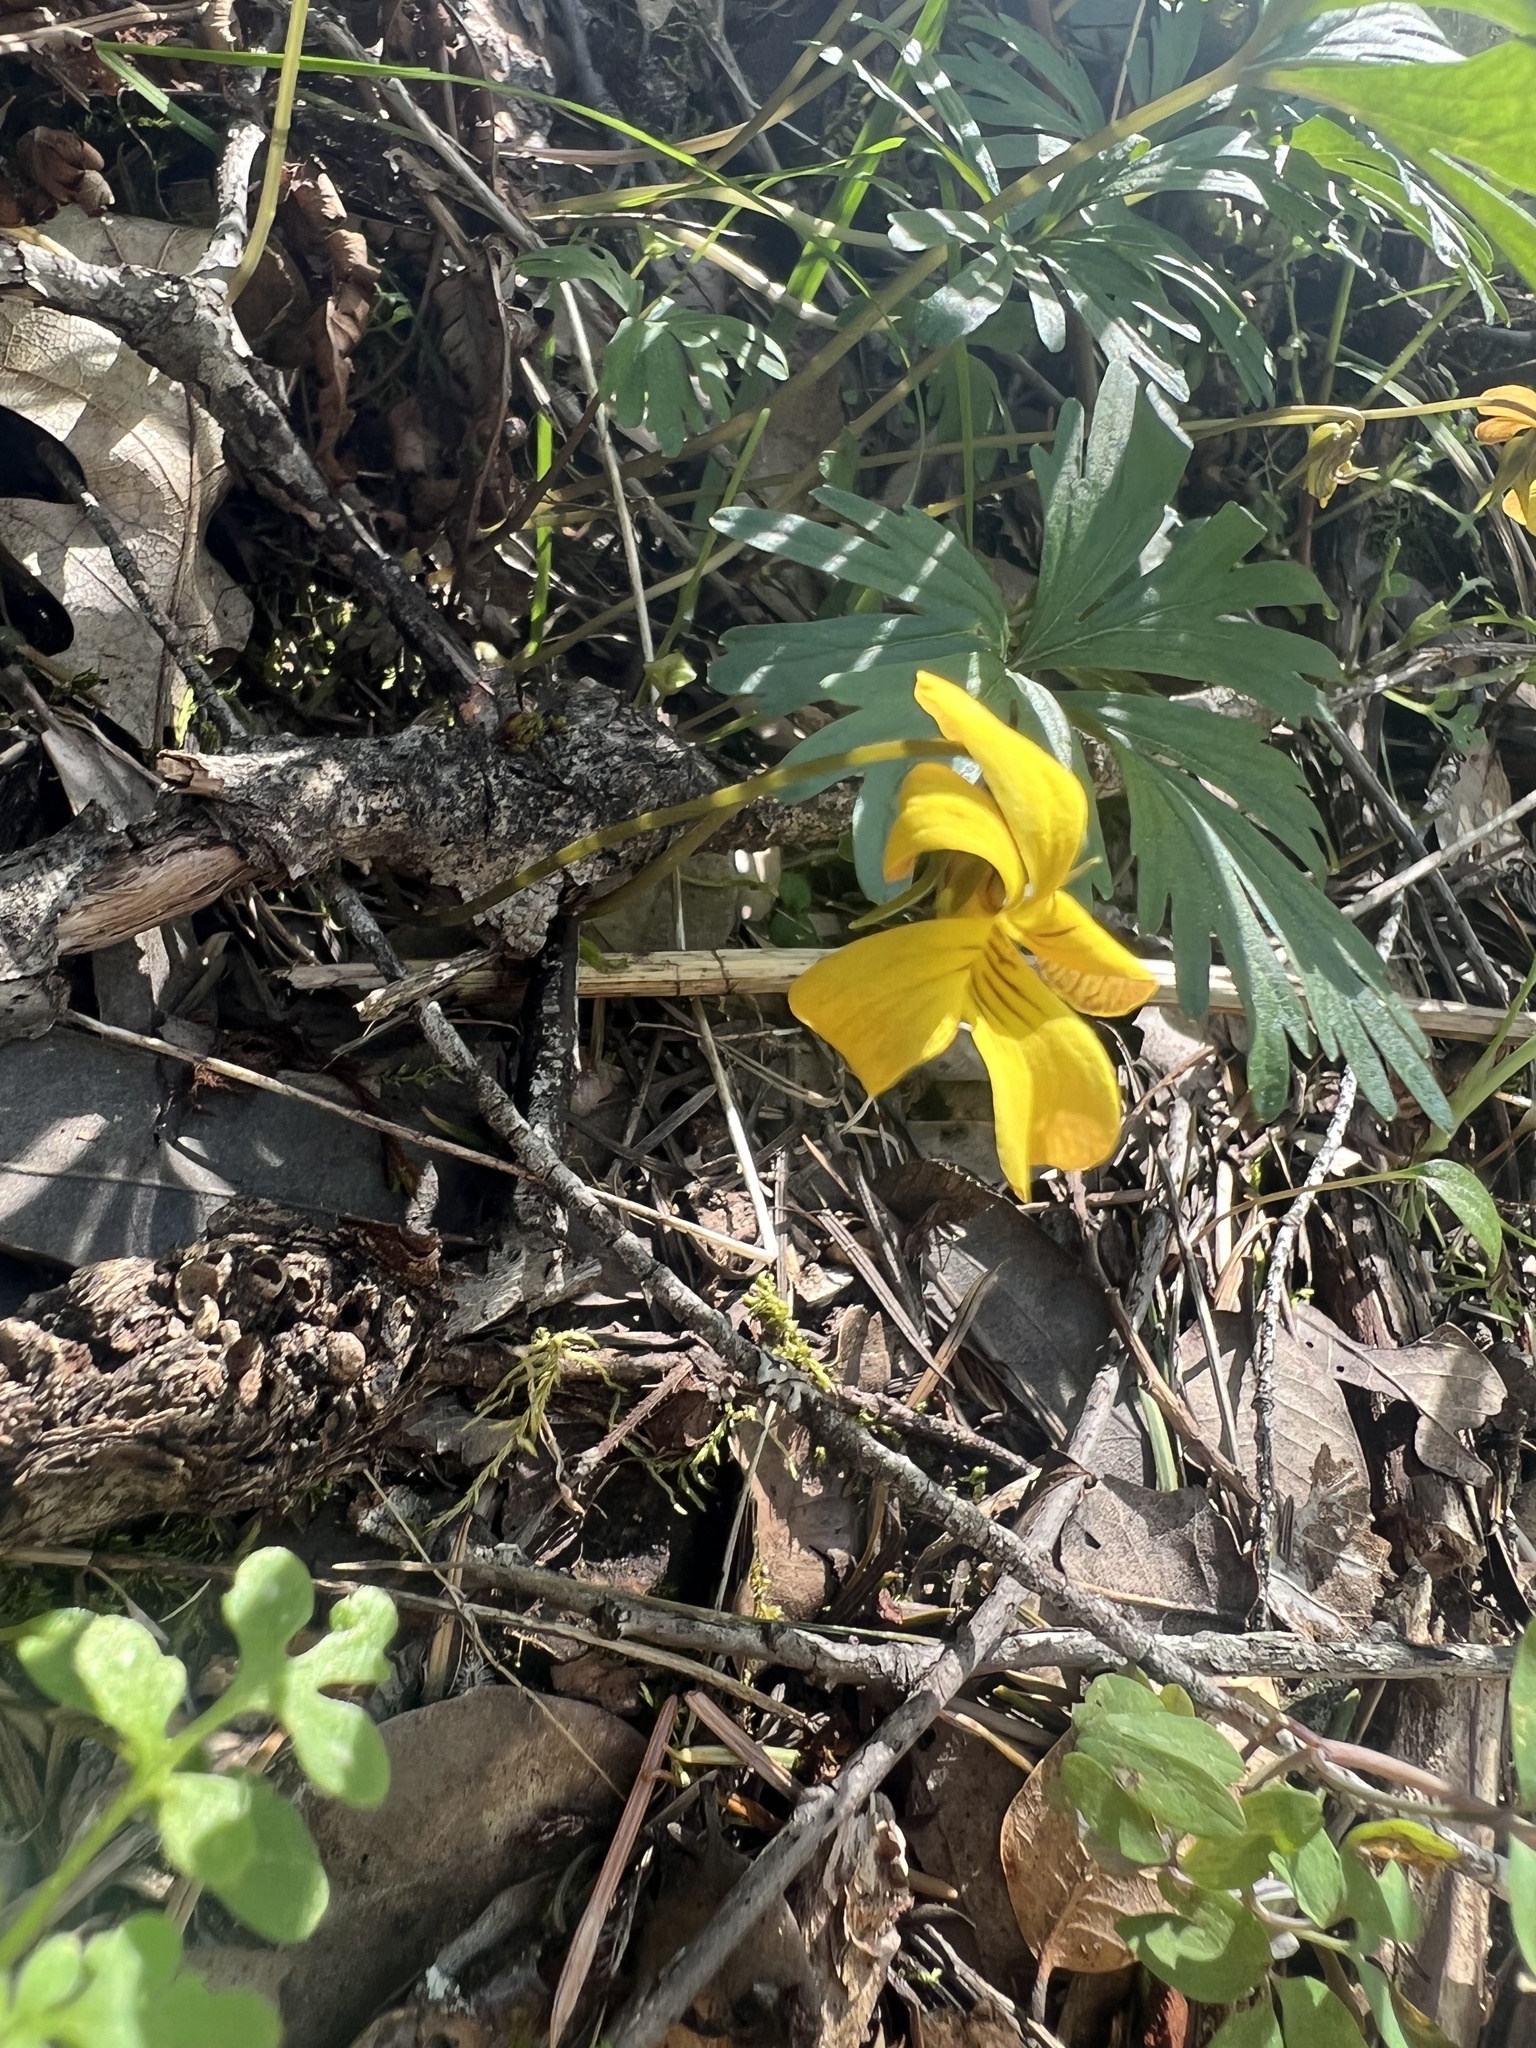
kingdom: Plantae
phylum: Tracheophyta
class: Magnoliopsida
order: Malpighiales
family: Violaceae
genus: Viola
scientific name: Viola sheltonii
